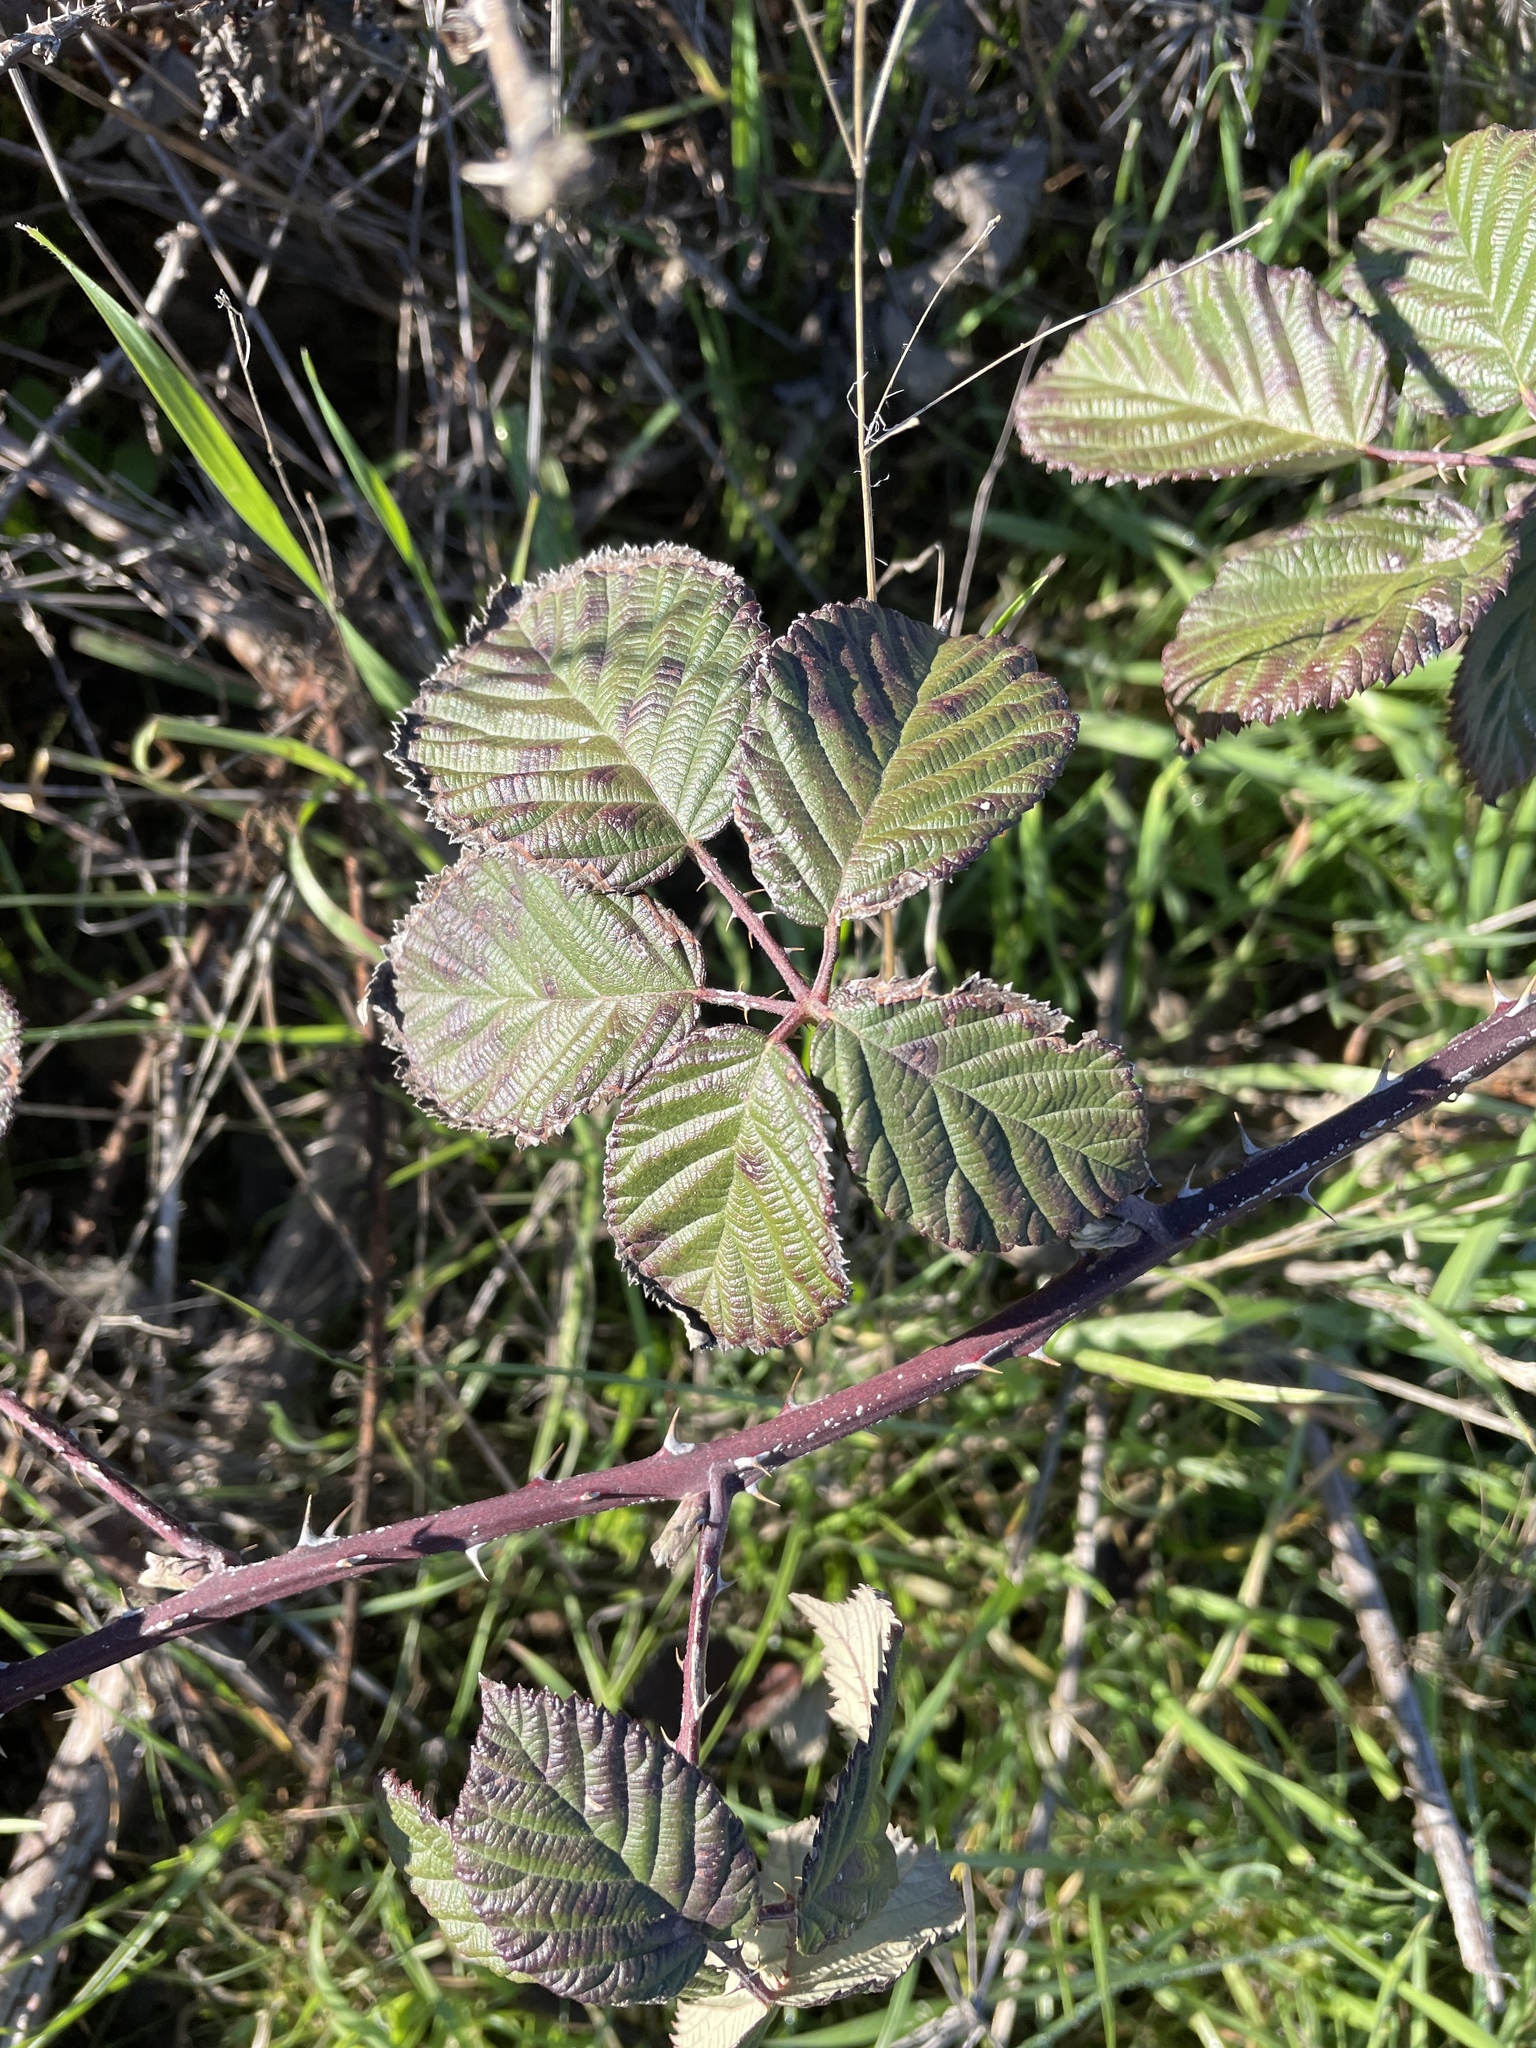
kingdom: Plantae
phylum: Tracheophyta
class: Magnoliopsida
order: Rosales
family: Rosaceae
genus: Rubus
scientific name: Rubus armeniacus
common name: Himalayan blackberry
